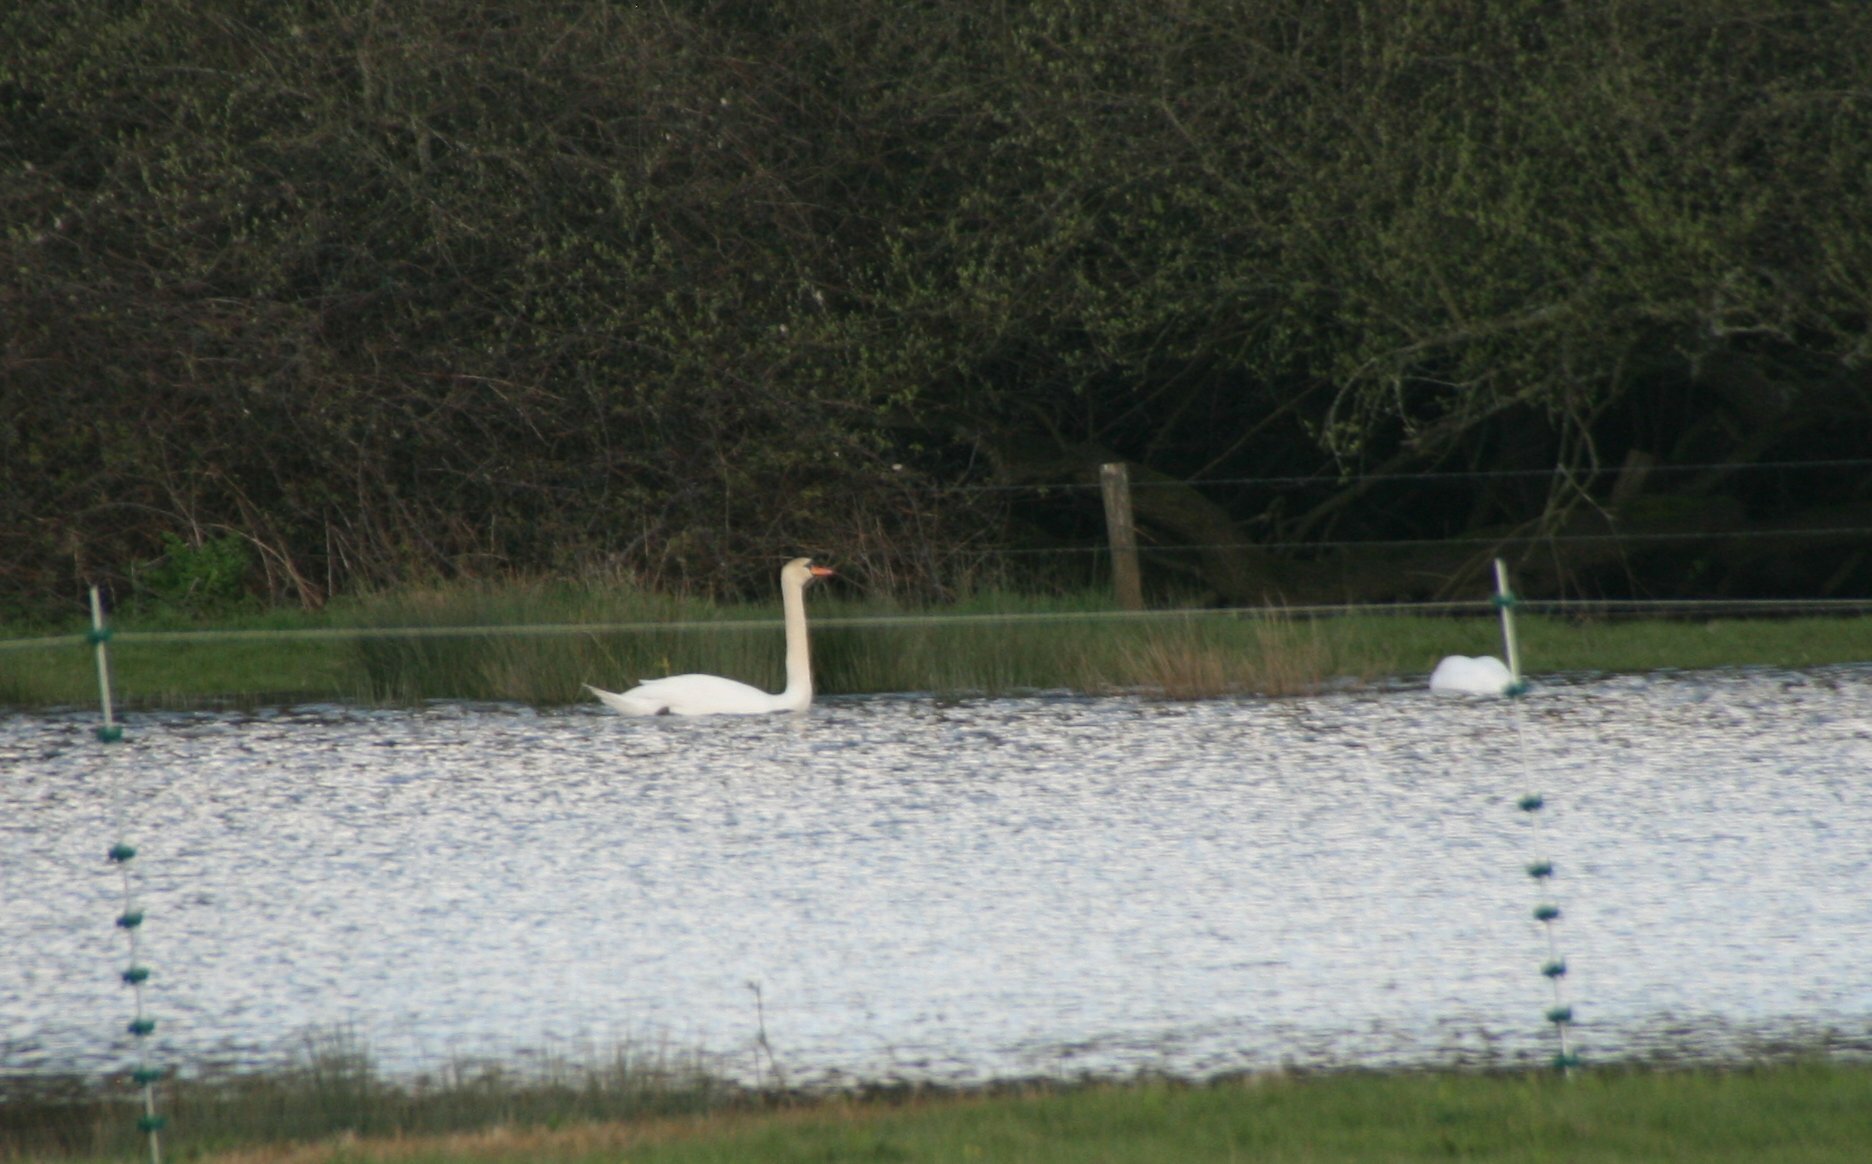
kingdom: Animalia
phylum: Chordata
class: Aves
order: Anseriformes
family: Anatidae
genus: Cygnus
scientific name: Cygnus olor
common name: Mute swan
